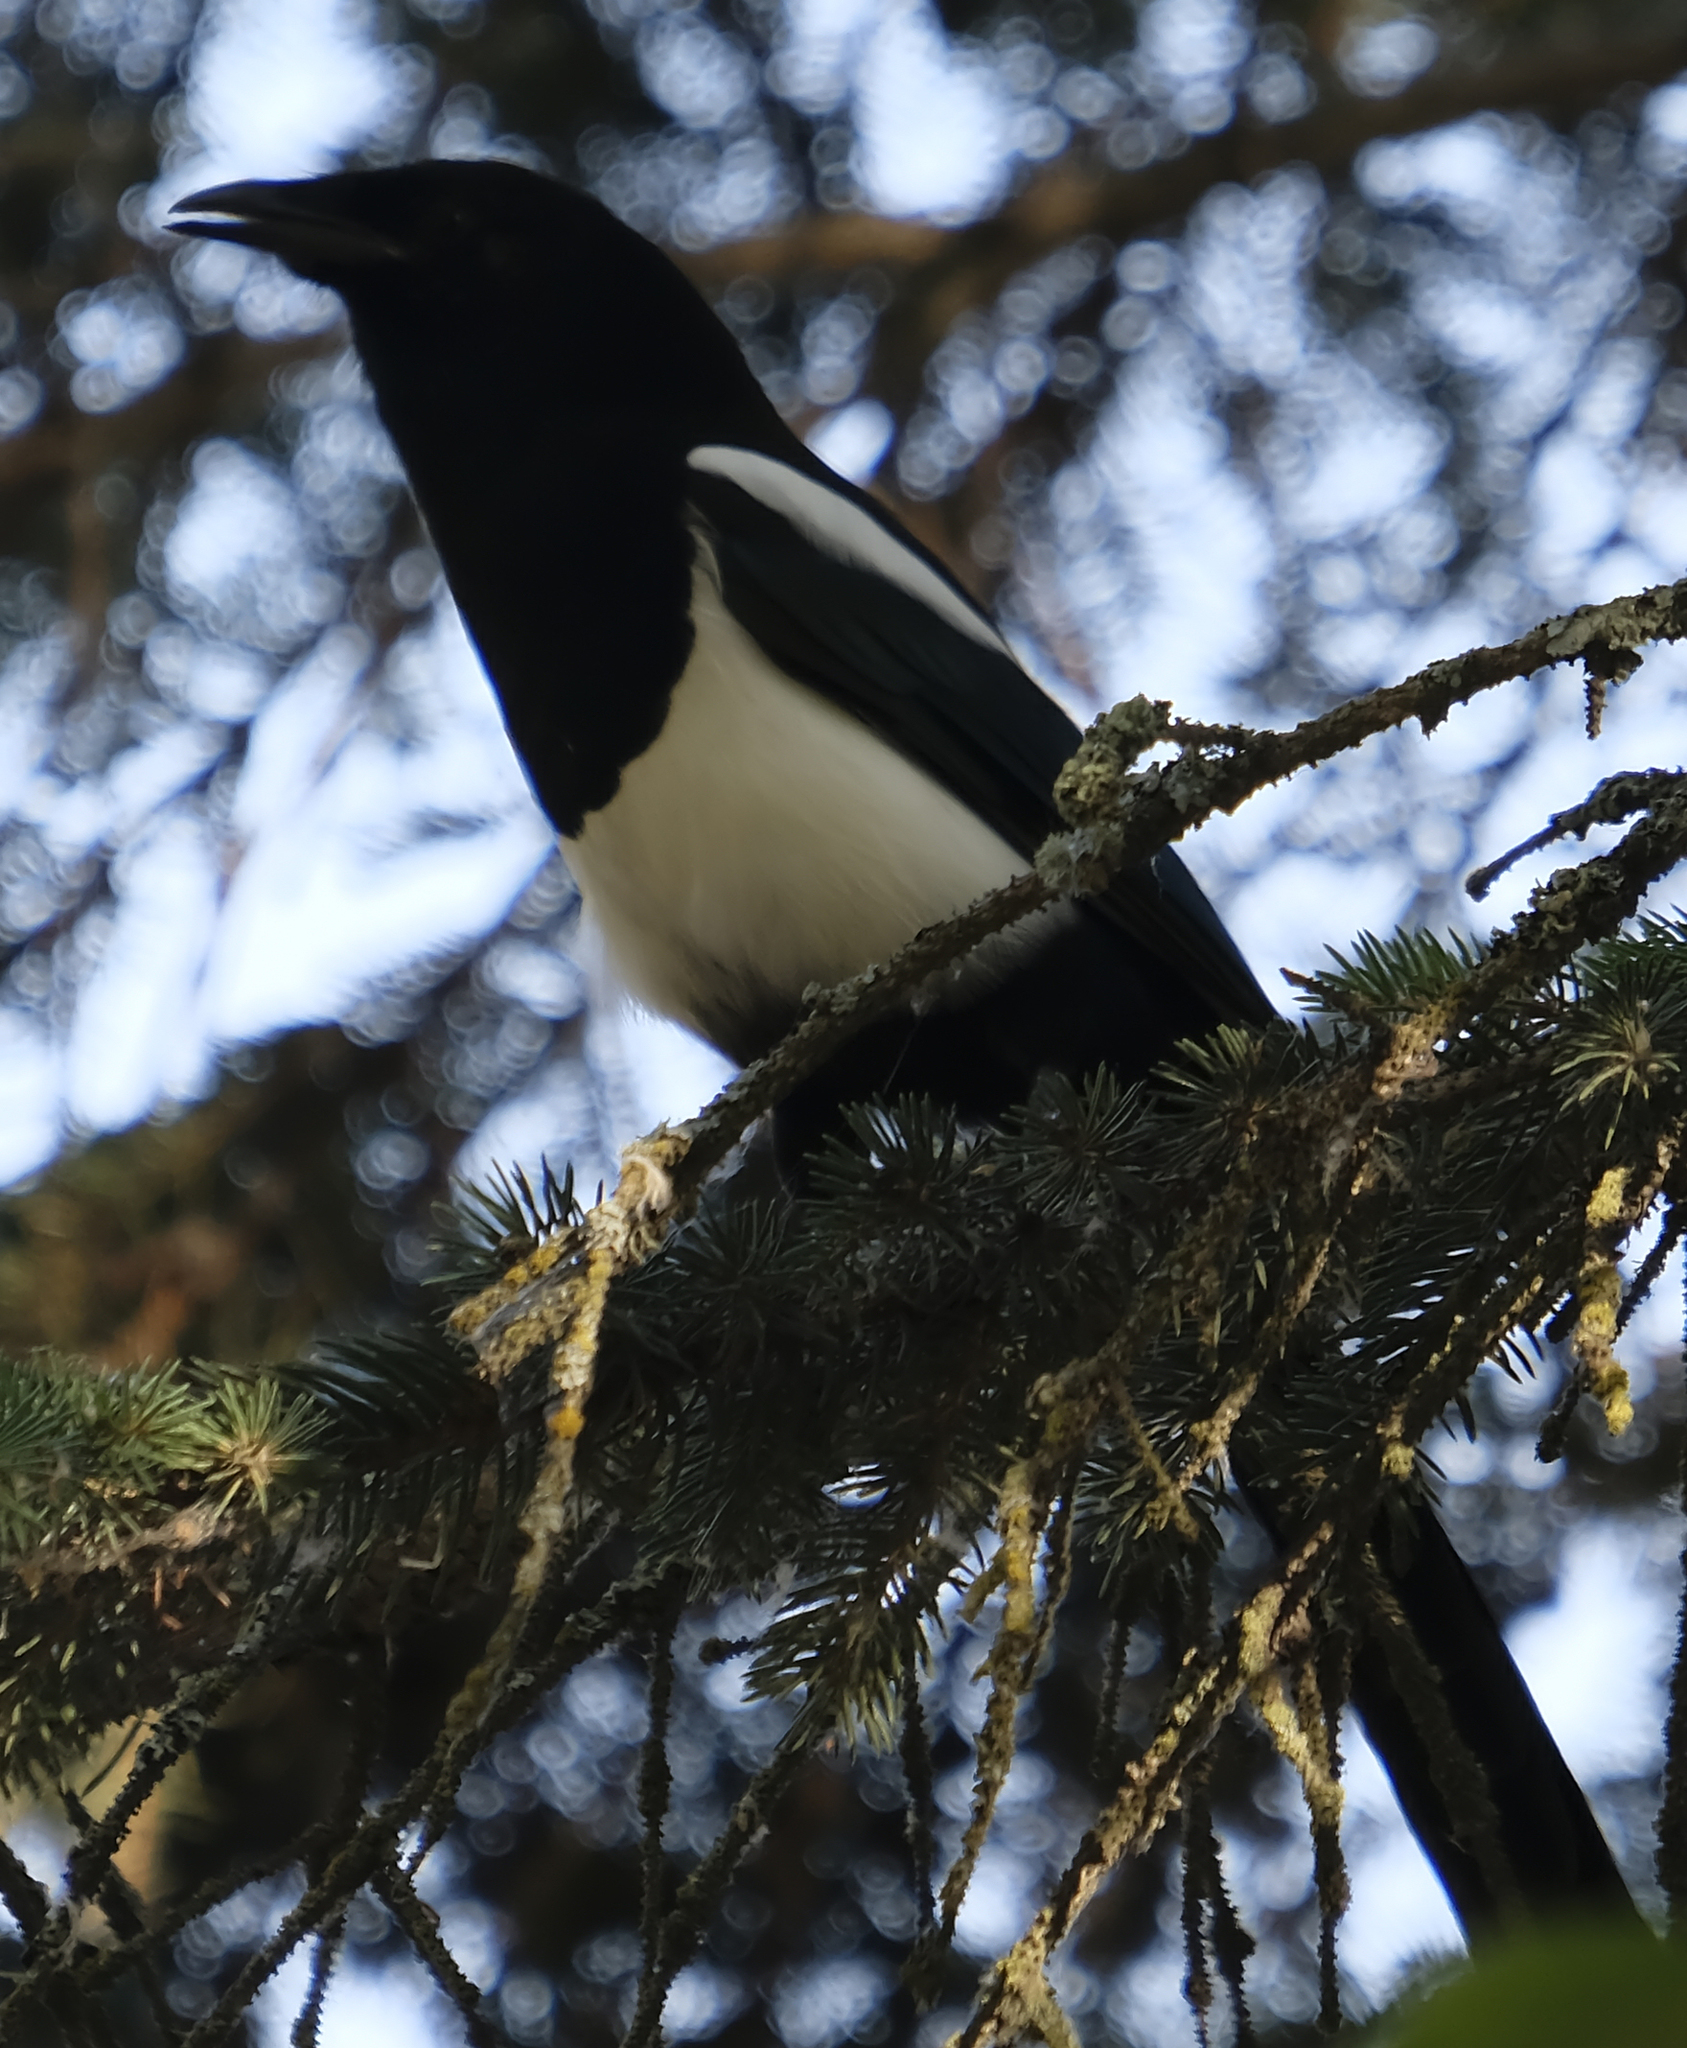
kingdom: Animalia
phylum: Chordata
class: Aves
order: Passeriformes
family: Corvidae
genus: Pica
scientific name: Pica hudsonia
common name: Black-billed magpie
